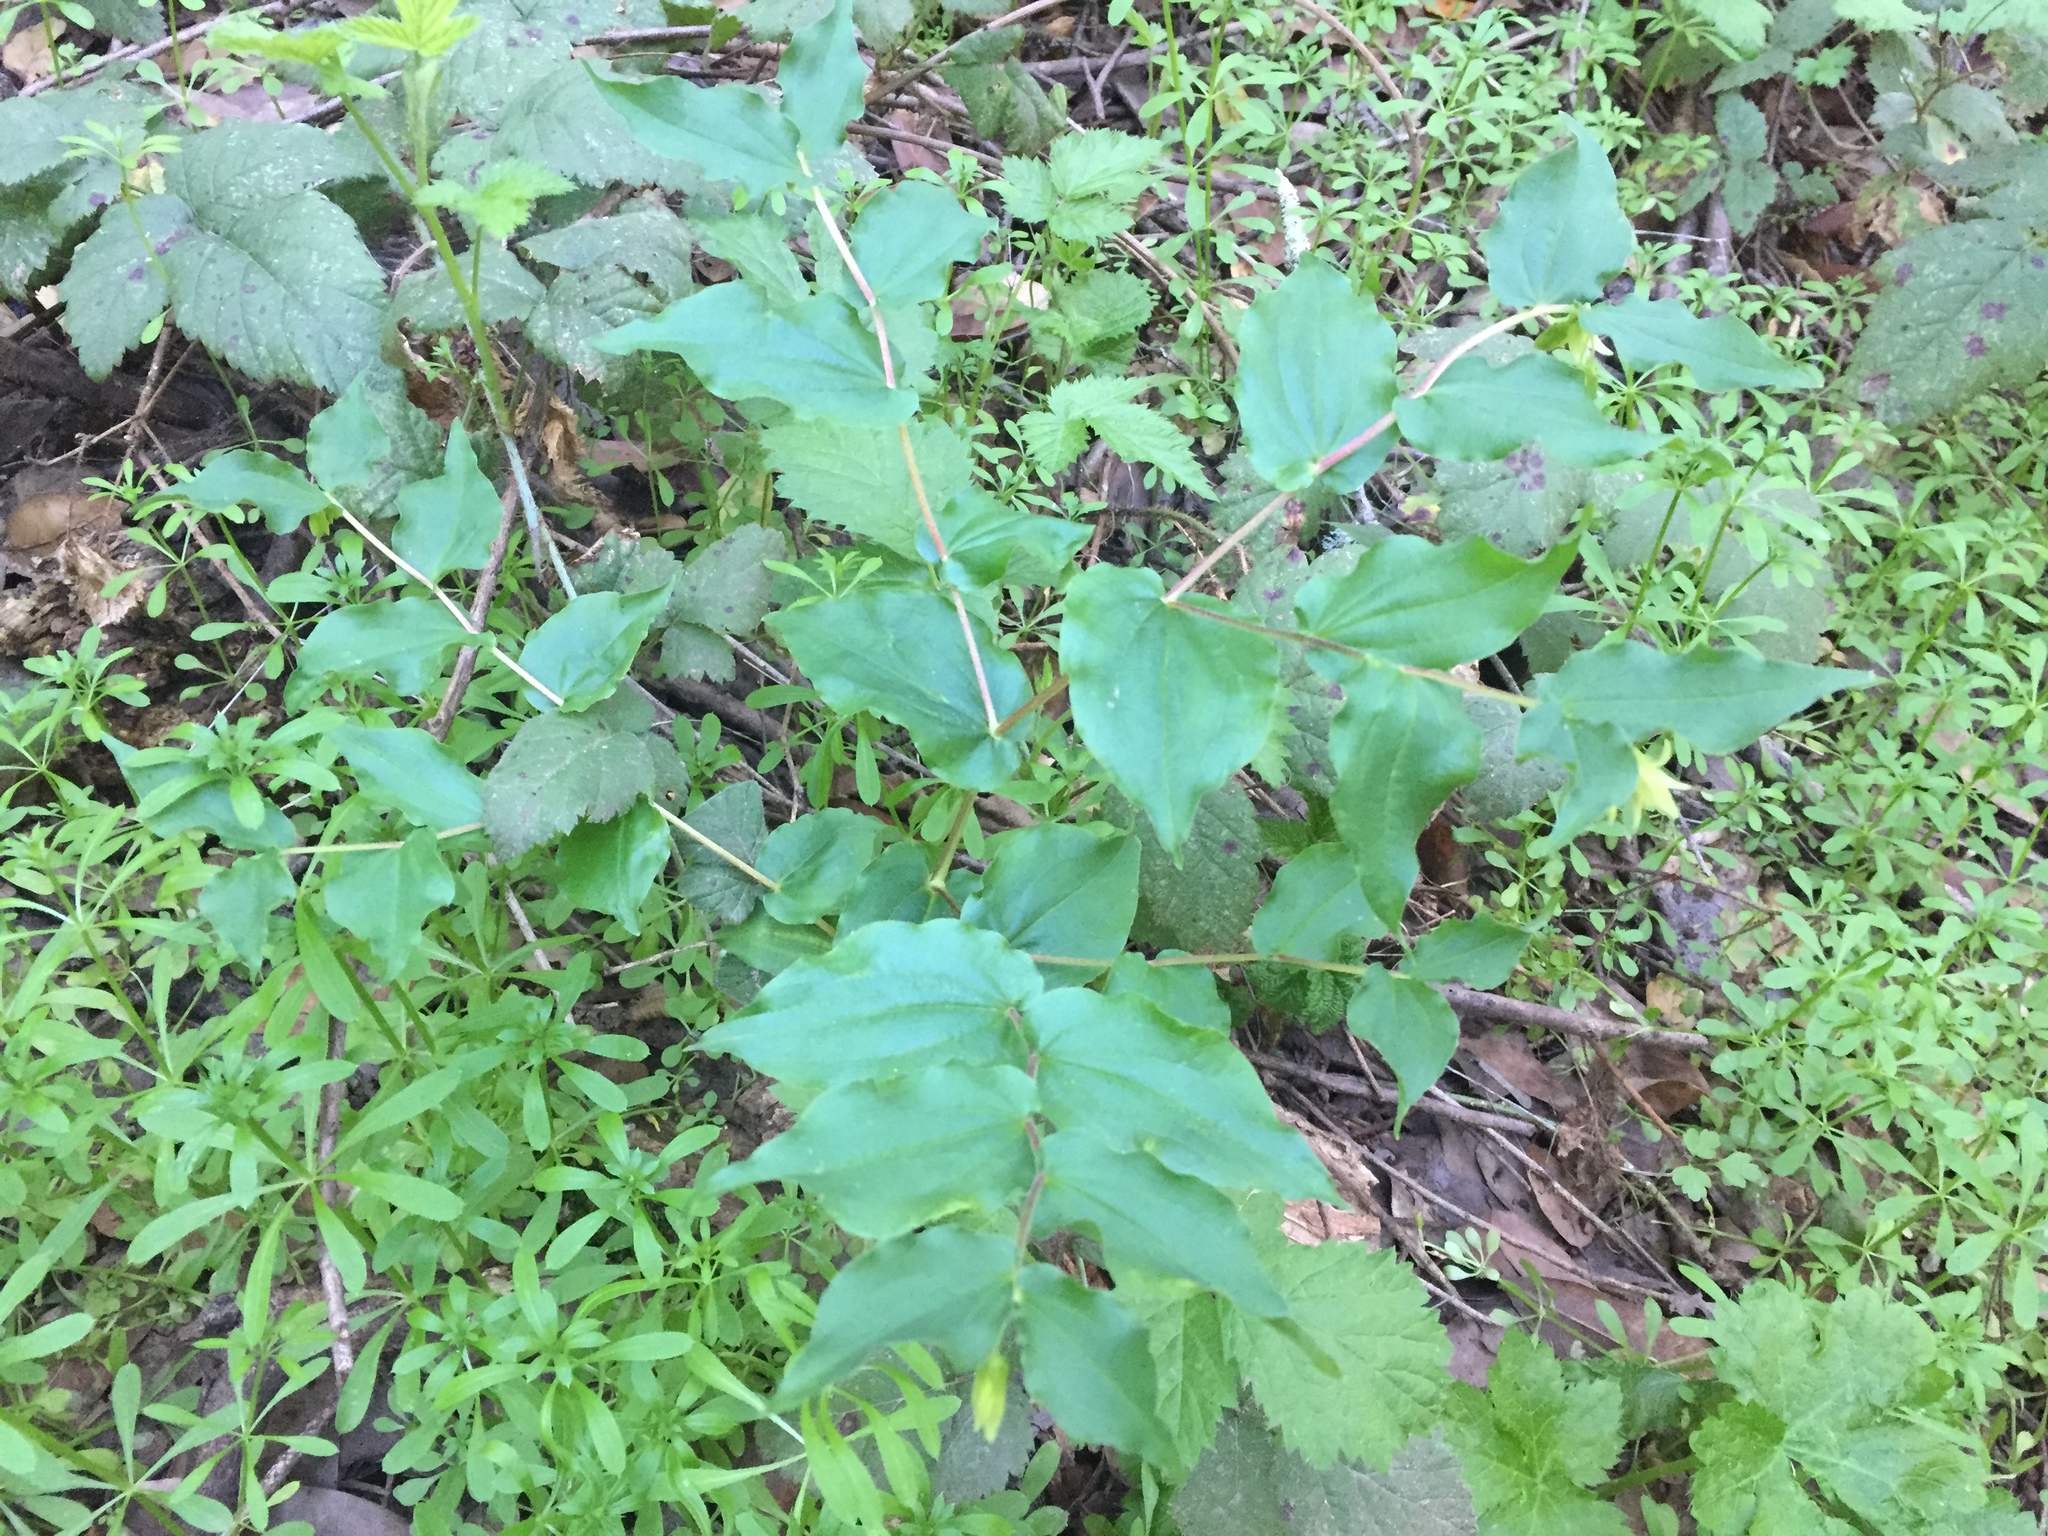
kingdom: Plantae
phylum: Tracheophyta
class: Liliopsida
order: Liliales
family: Liliaceae
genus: Prosartes
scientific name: Prosartes hookeri
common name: Fairy-bells
